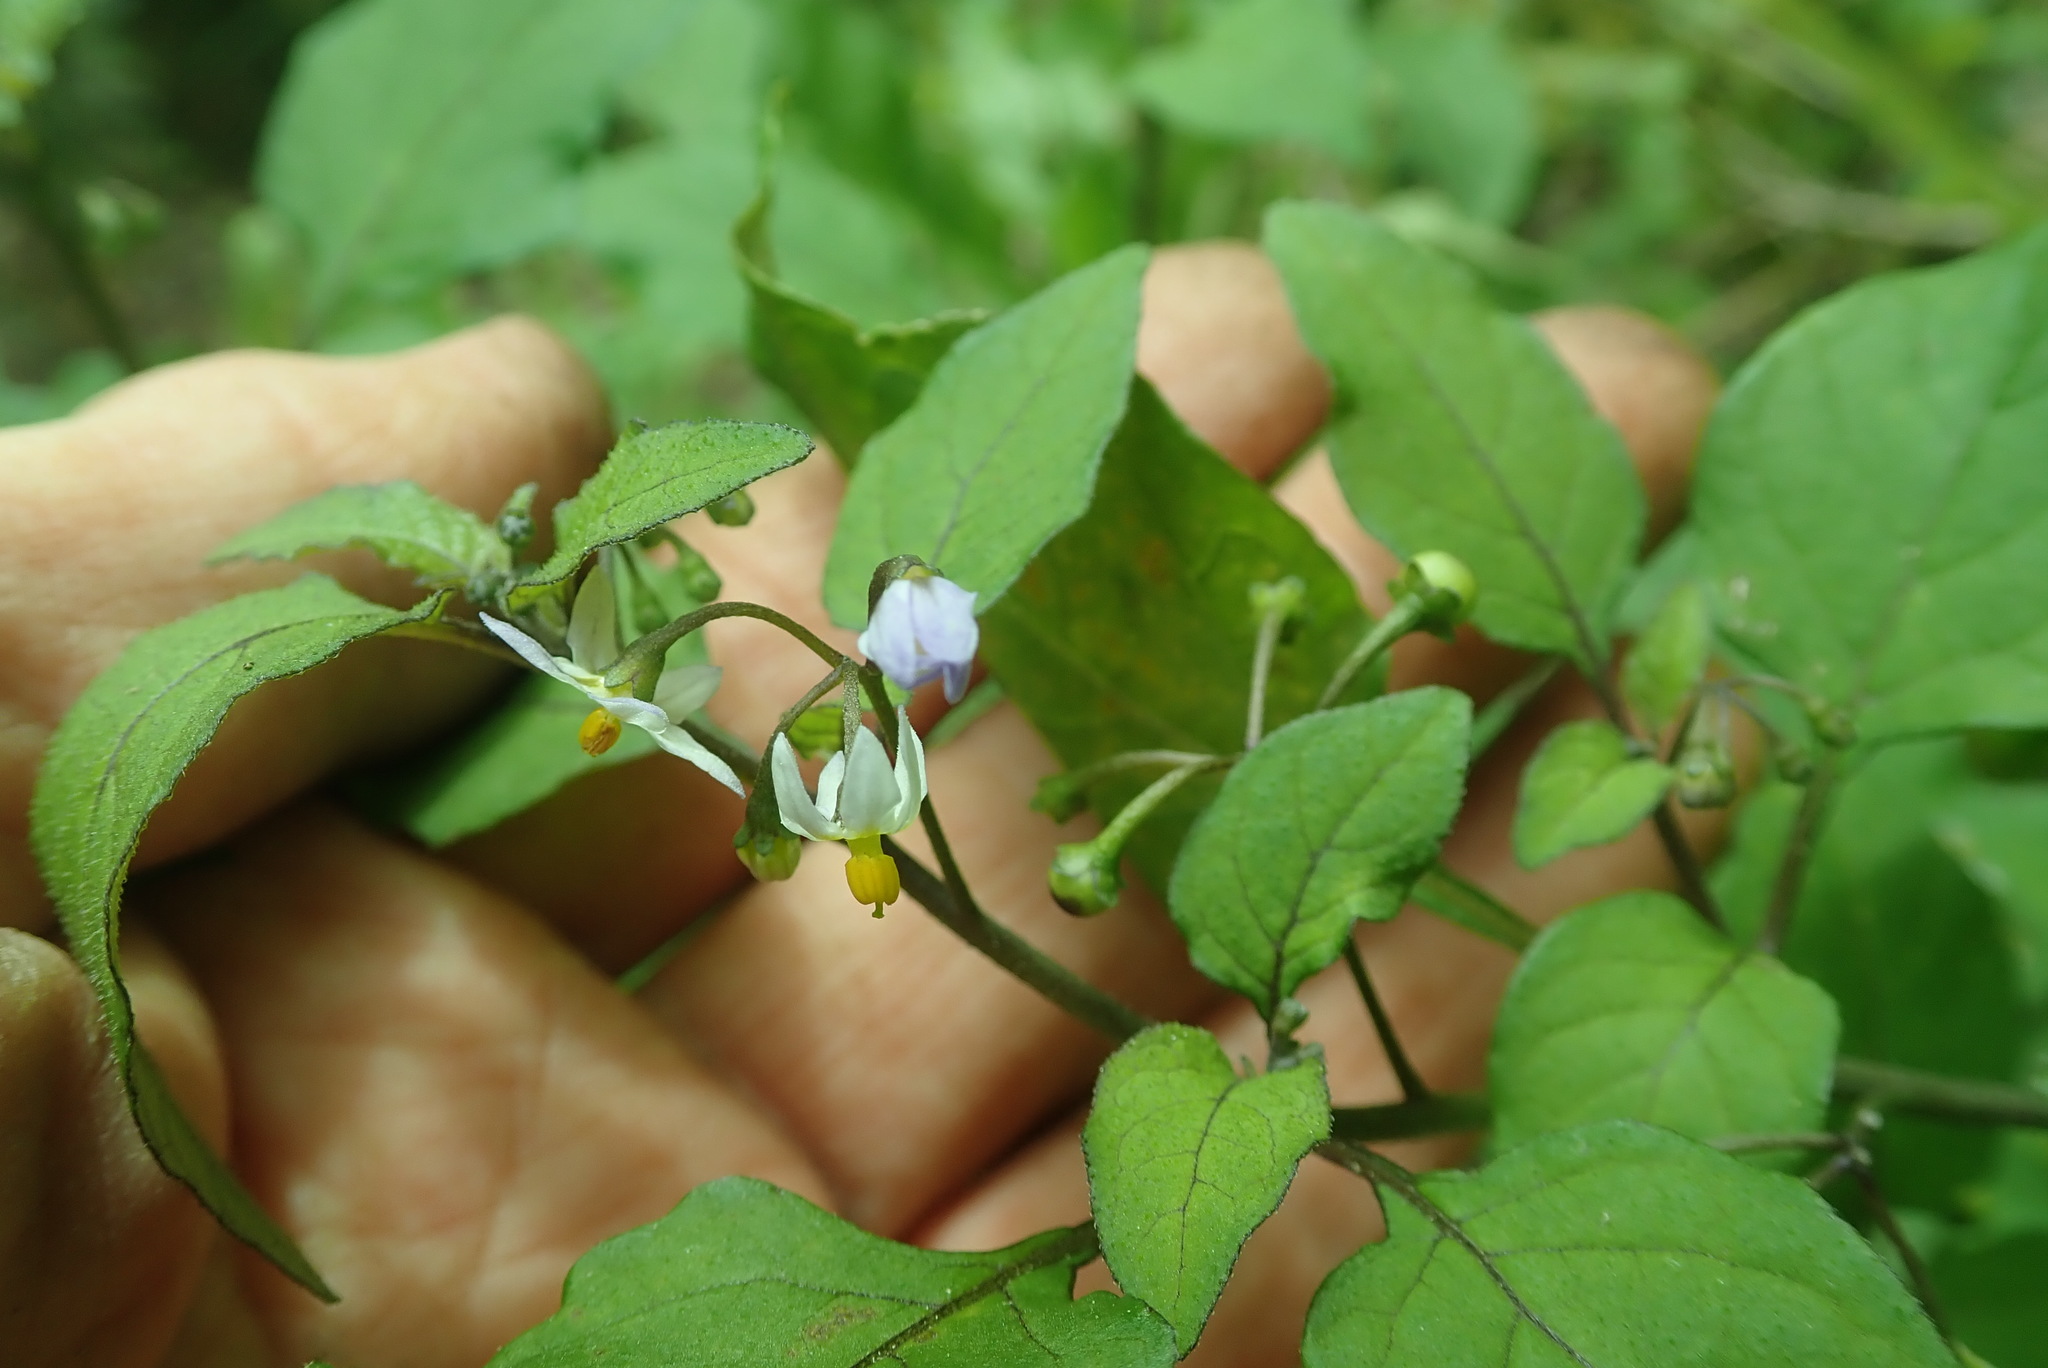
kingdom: Plantae
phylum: Tracheophyta
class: Magnoliopsida
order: Solanales
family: Solanaceae
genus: Solanum
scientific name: Solanum nigrum
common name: Black nightshade
